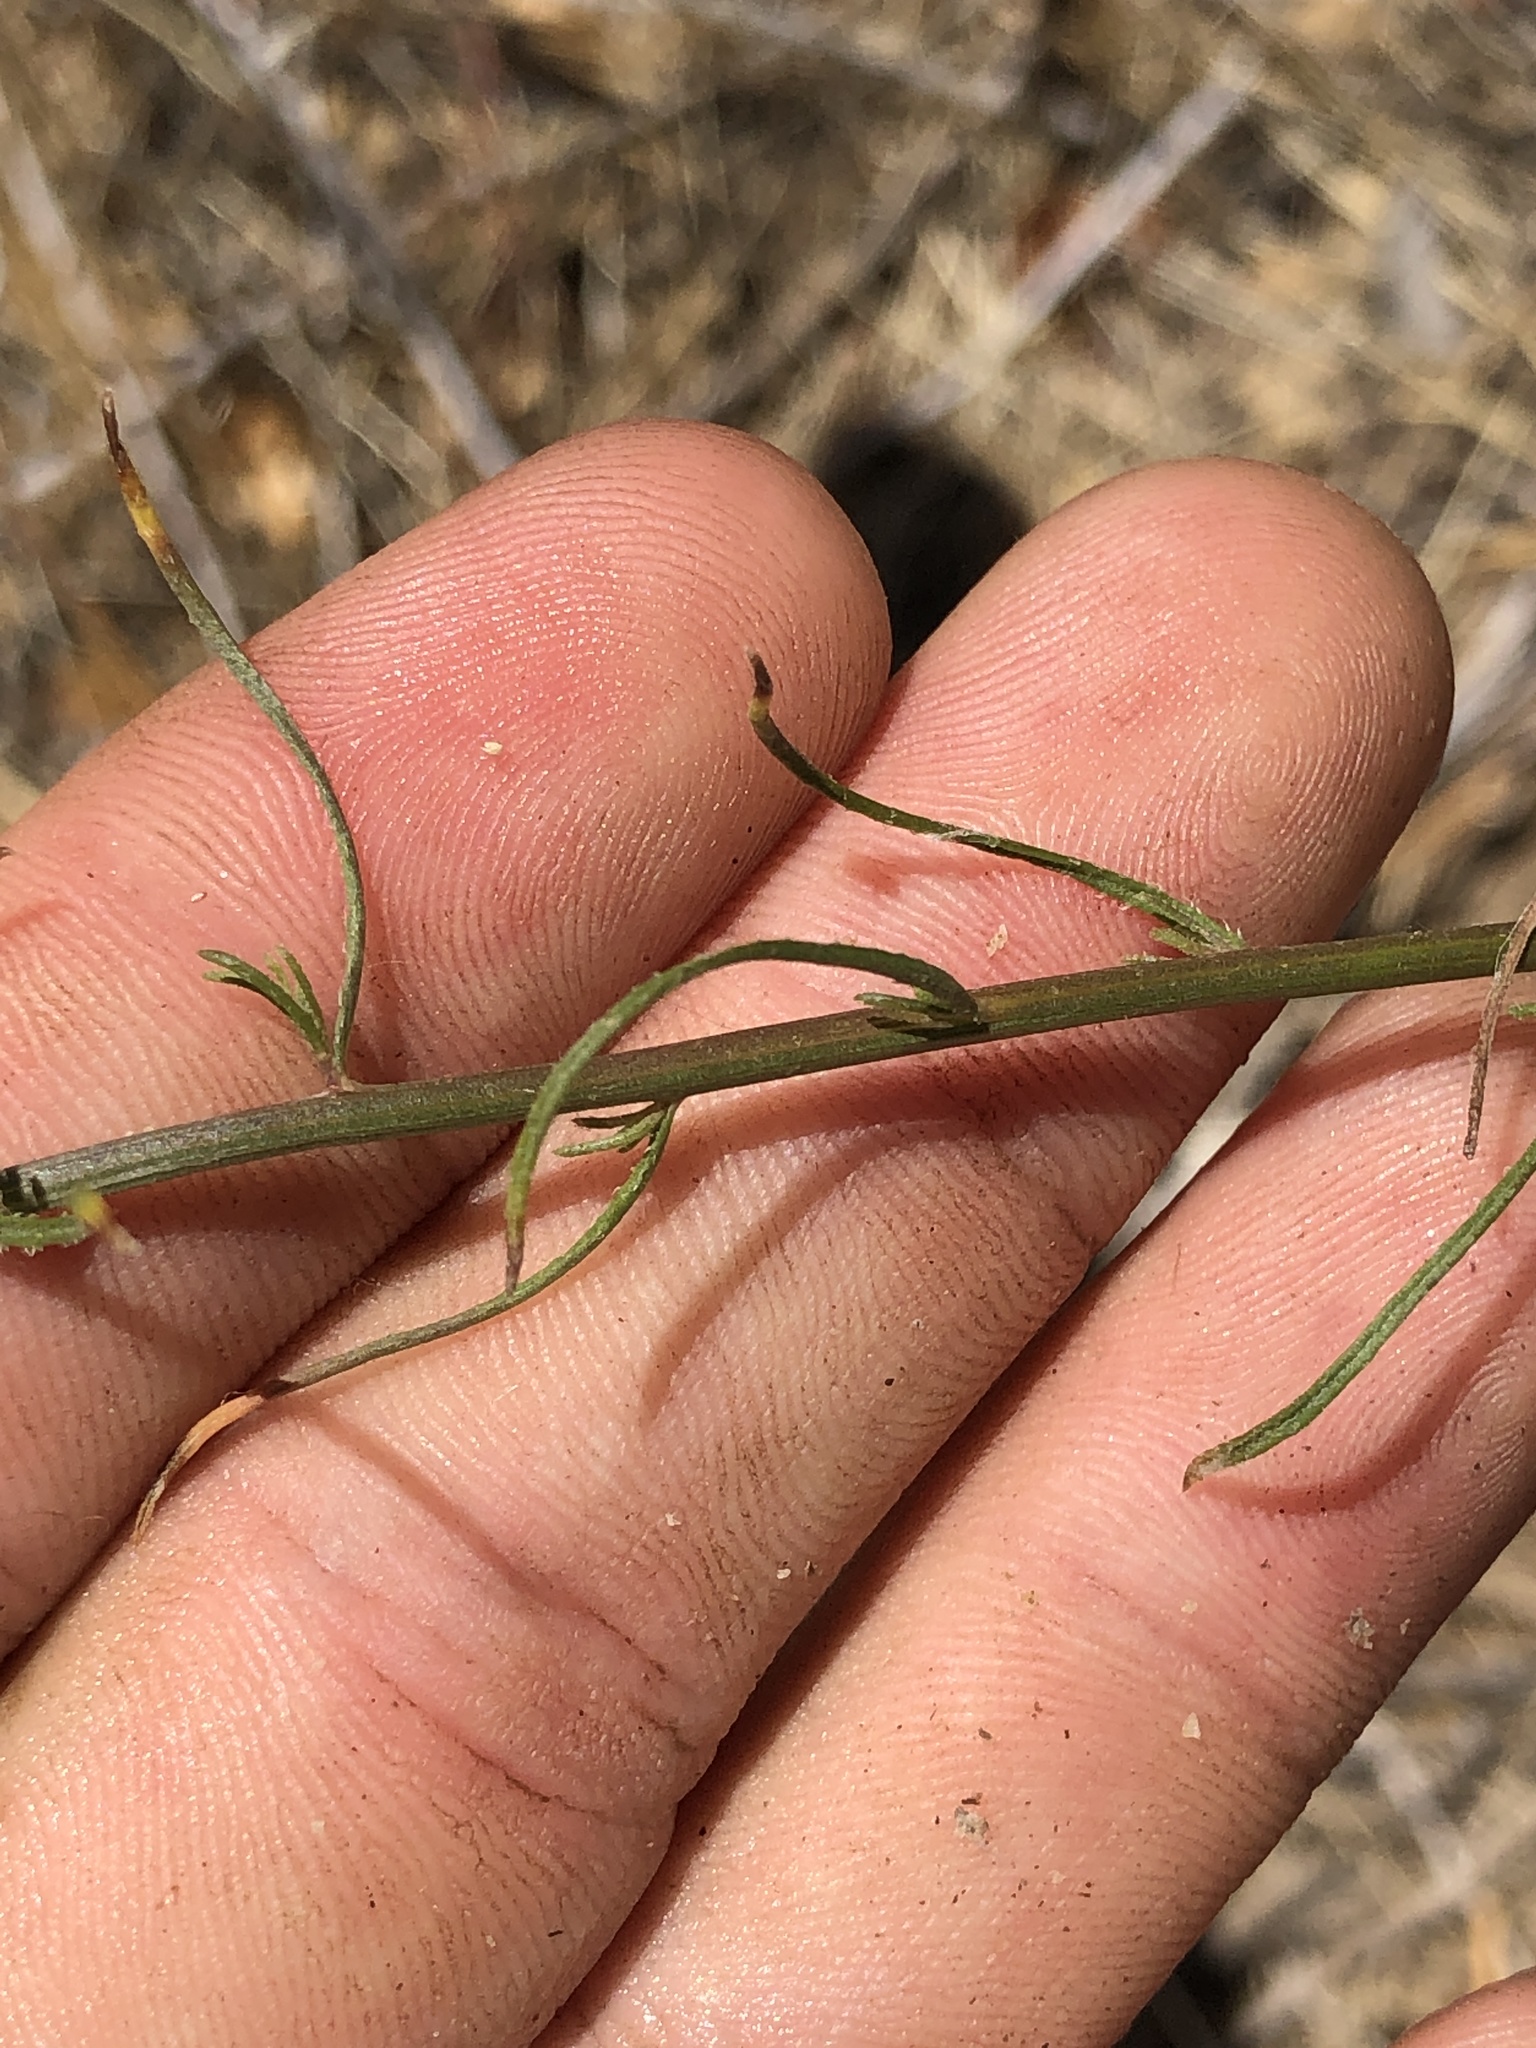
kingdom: Plantae
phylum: Tracheophyta
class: Magnoliopsida
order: Asterales
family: Asteraceae
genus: Erigeron
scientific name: Erigeron foliosus
